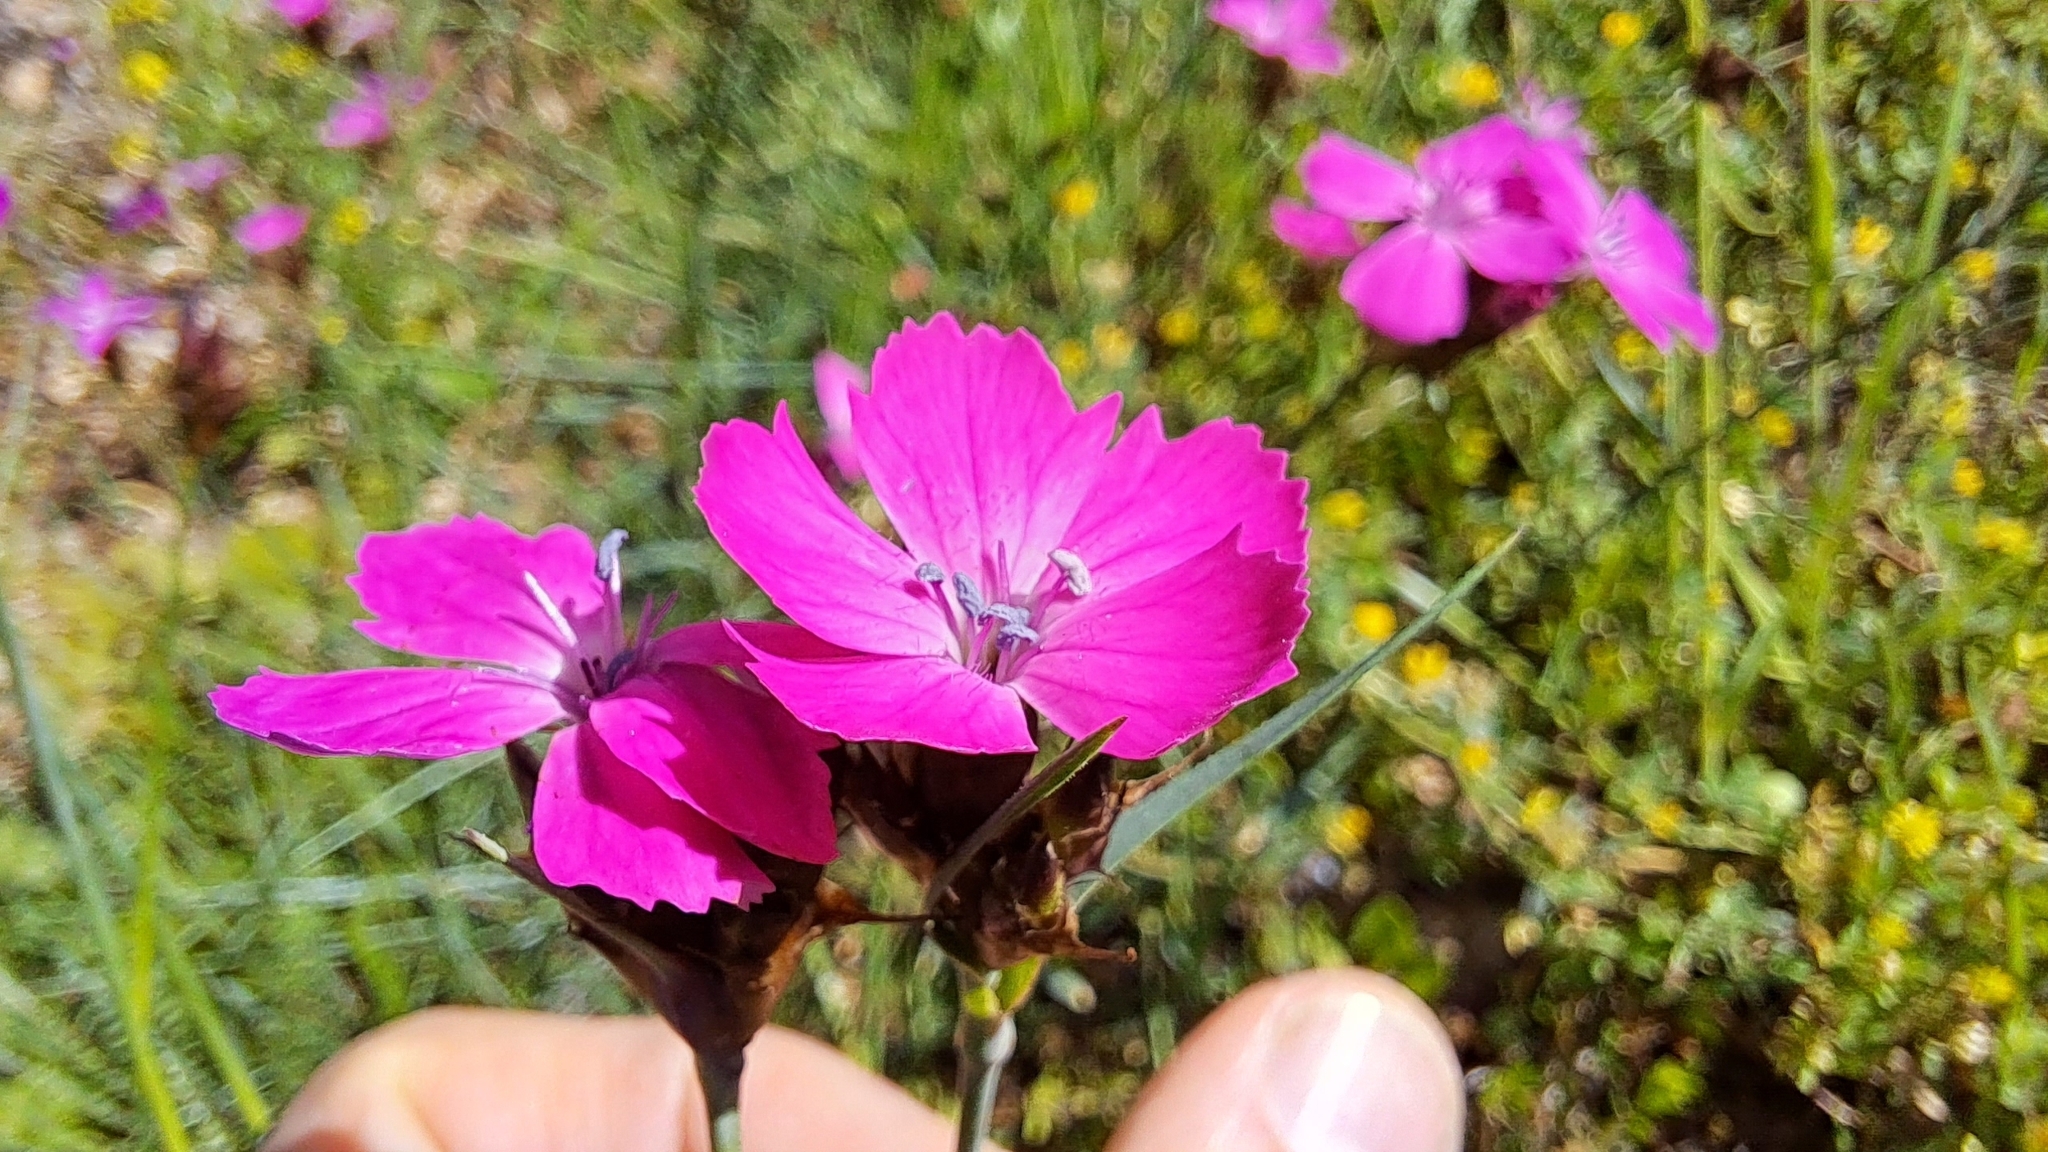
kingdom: Plantae
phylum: Tracheophyta
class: Magnoliopsida
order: Caryophyllales
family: Caryophyllaceae
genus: Dianthus
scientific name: Dianthus carthusianorum
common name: Carthusian pink
